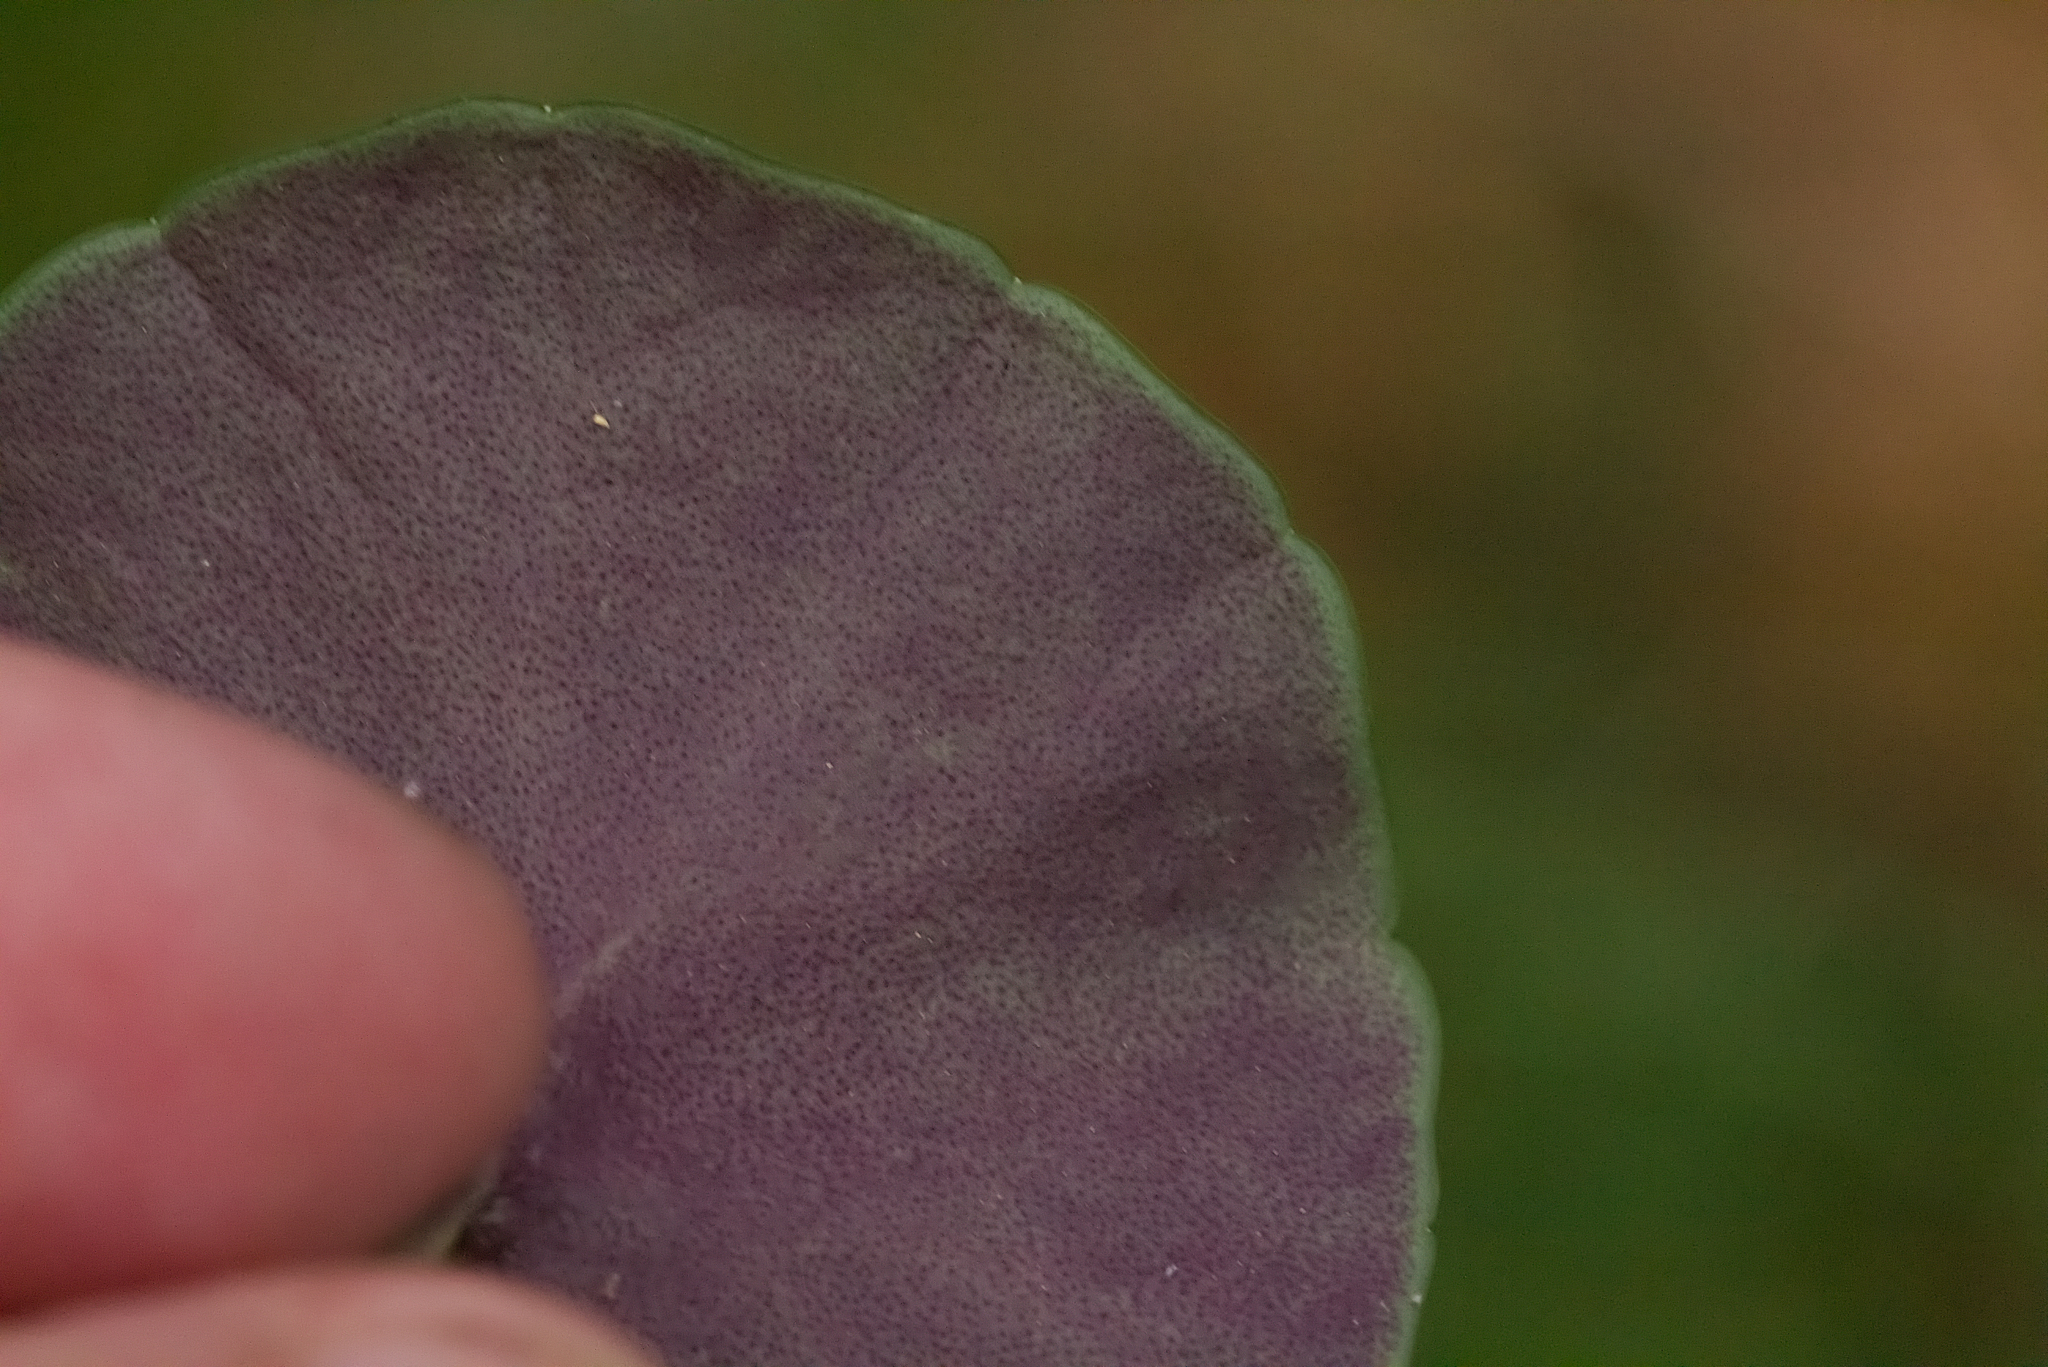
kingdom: Plantae
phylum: Tracheophyta
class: Magnoliopsida
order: Ericales
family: Primulaceae
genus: Soldanella
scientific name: Soldanella montana
